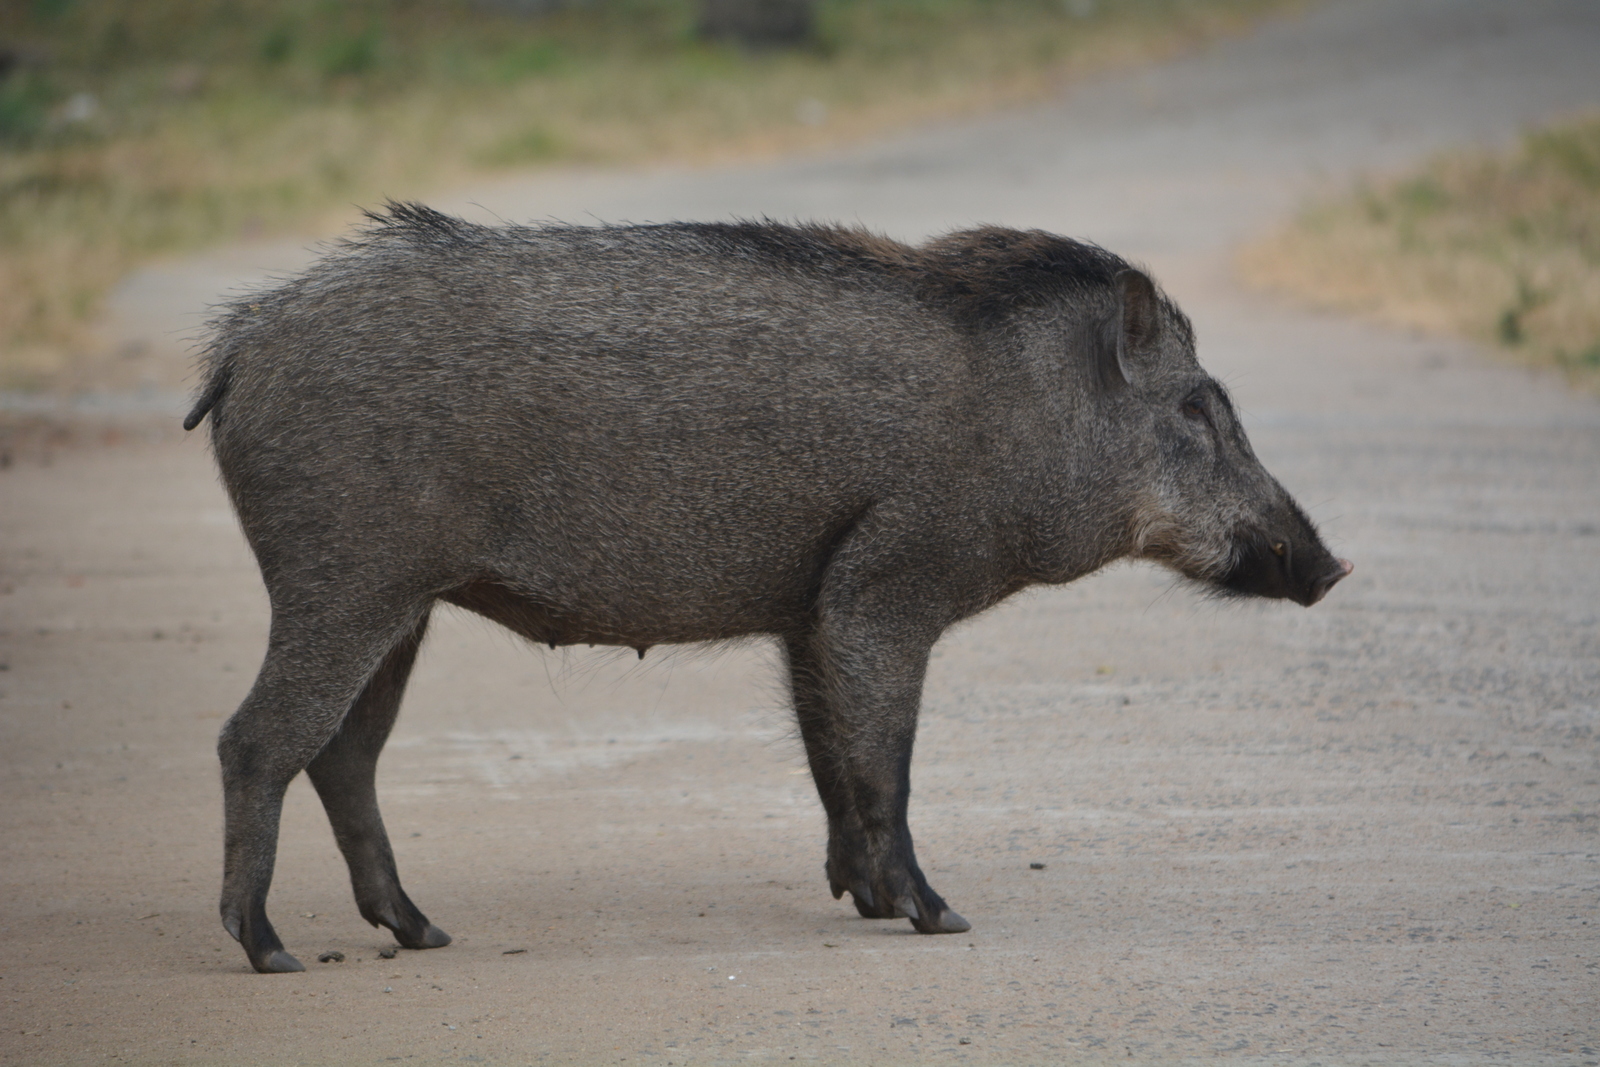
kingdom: Animalia
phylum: Chordata
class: Mammalia
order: Artiodactyla
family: Suidae
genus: Sus
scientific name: Sus scrofa
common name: Wild boar
